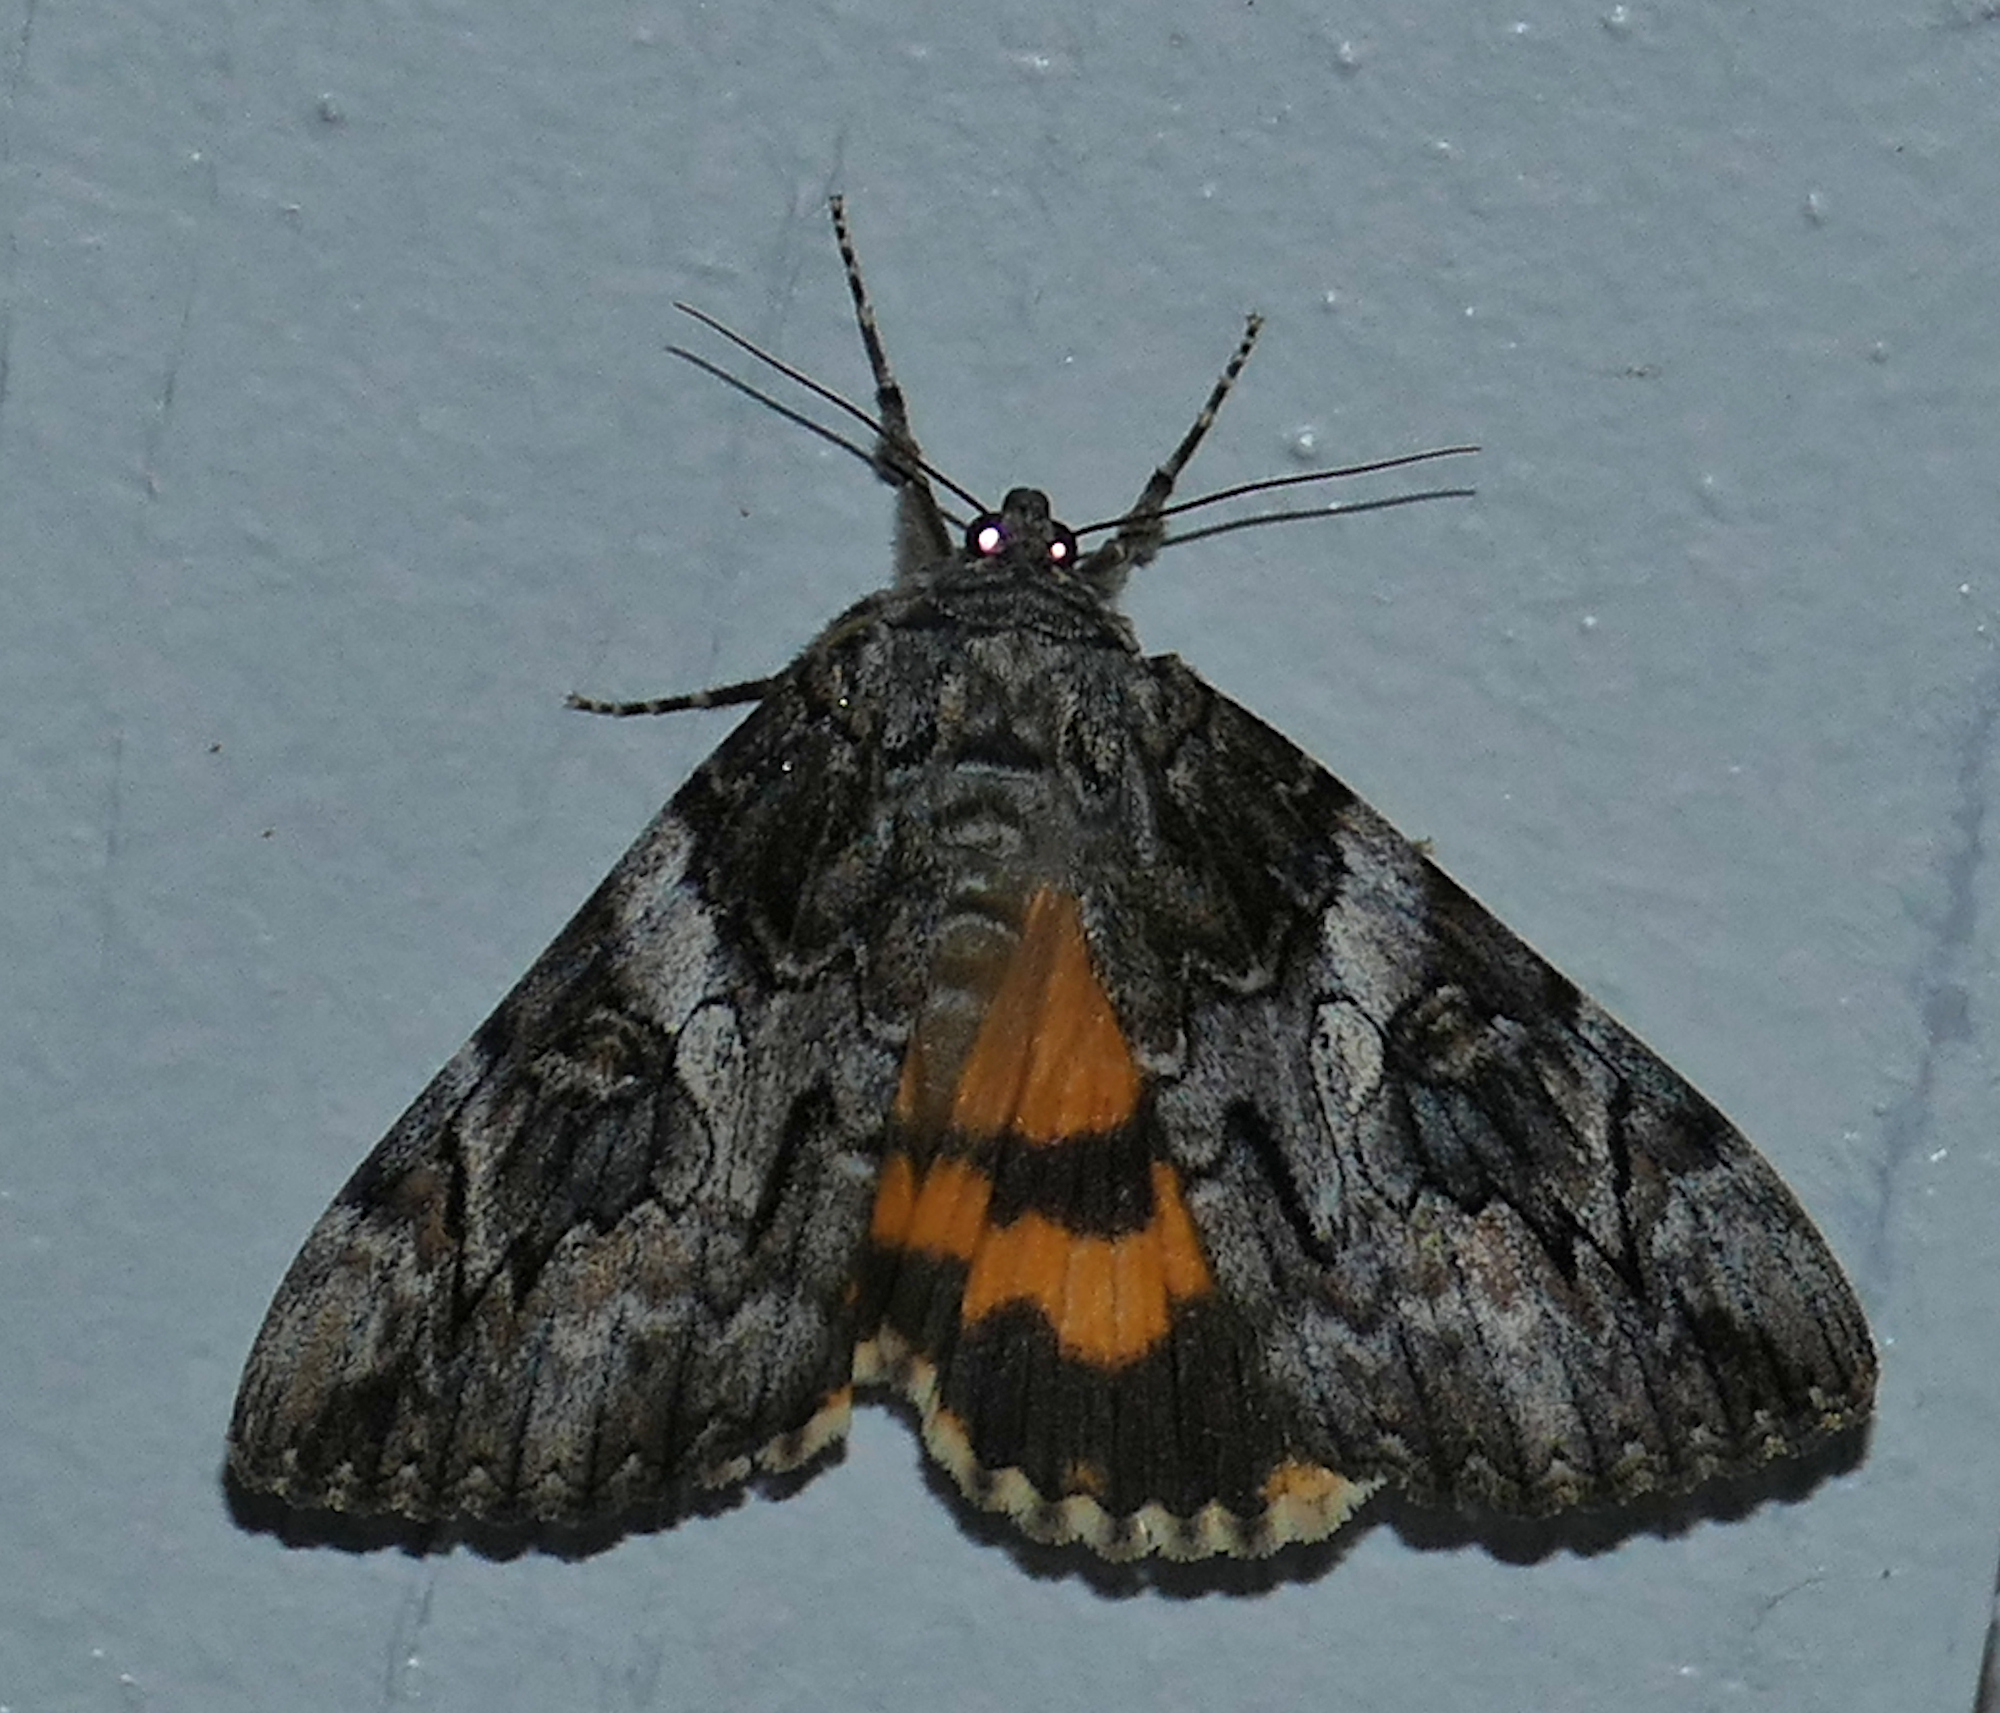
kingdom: Animalia
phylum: Arthropoda
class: Insecta
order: Lepidoptera
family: Erebidae
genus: Catocala
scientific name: Catocala piatrix
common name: The penitent underwing
